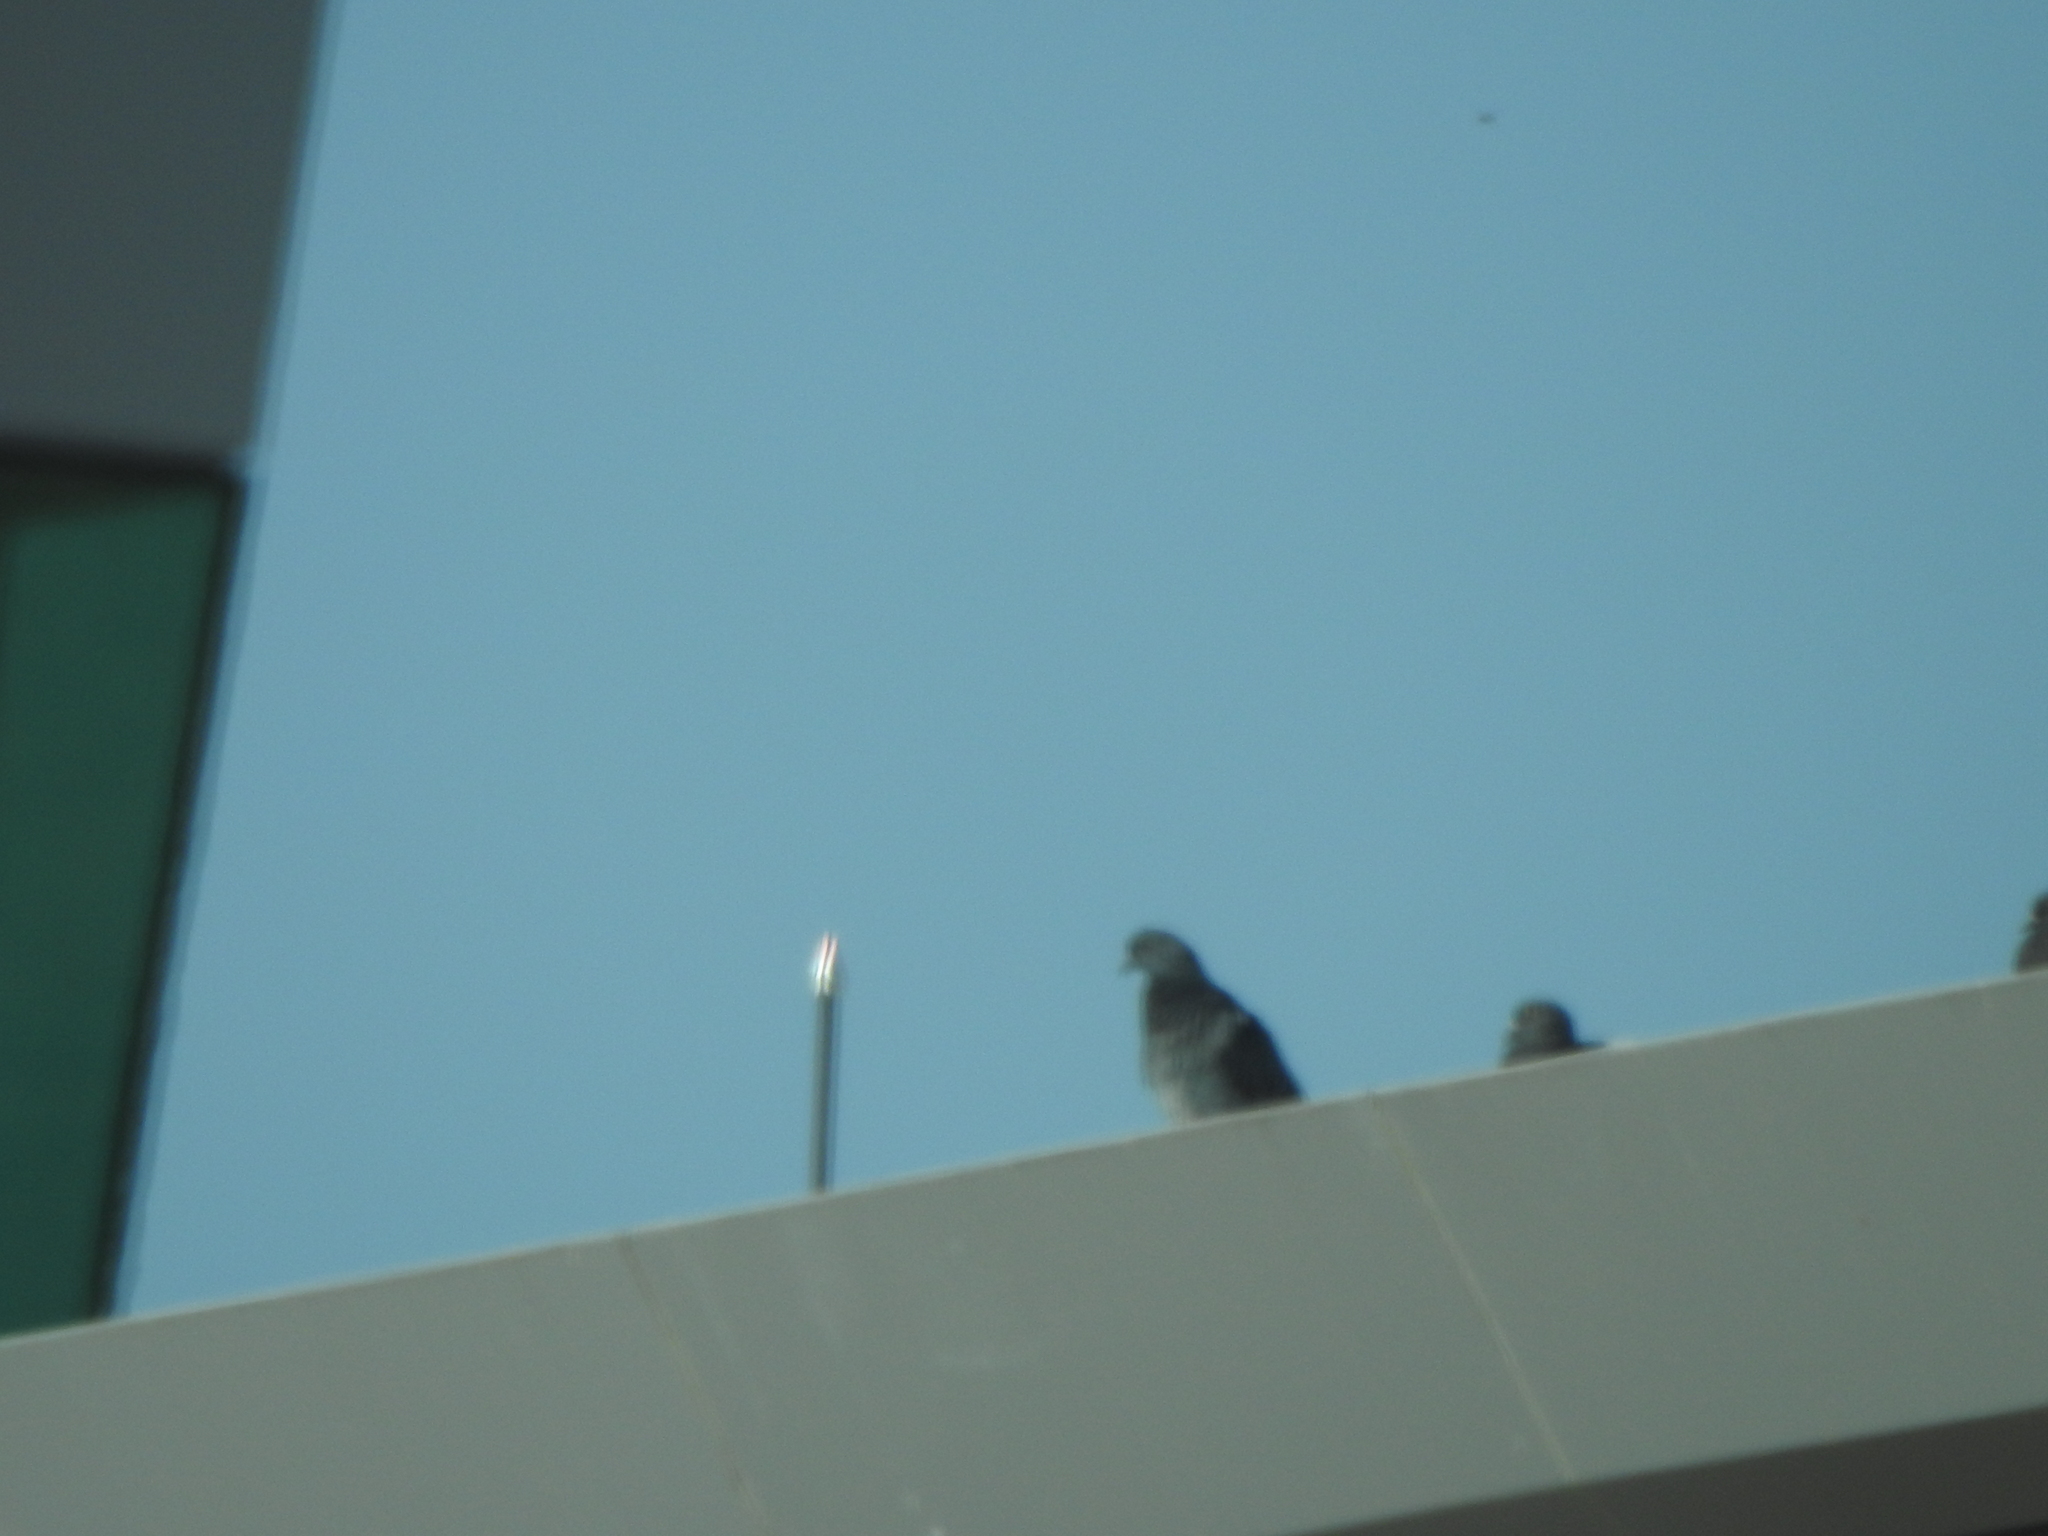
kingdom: Animalia
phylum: Chordata
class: Aves
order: Columbiformes
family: Columbidae
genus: Columba
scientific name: Columba livia
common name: Rock pigeon
